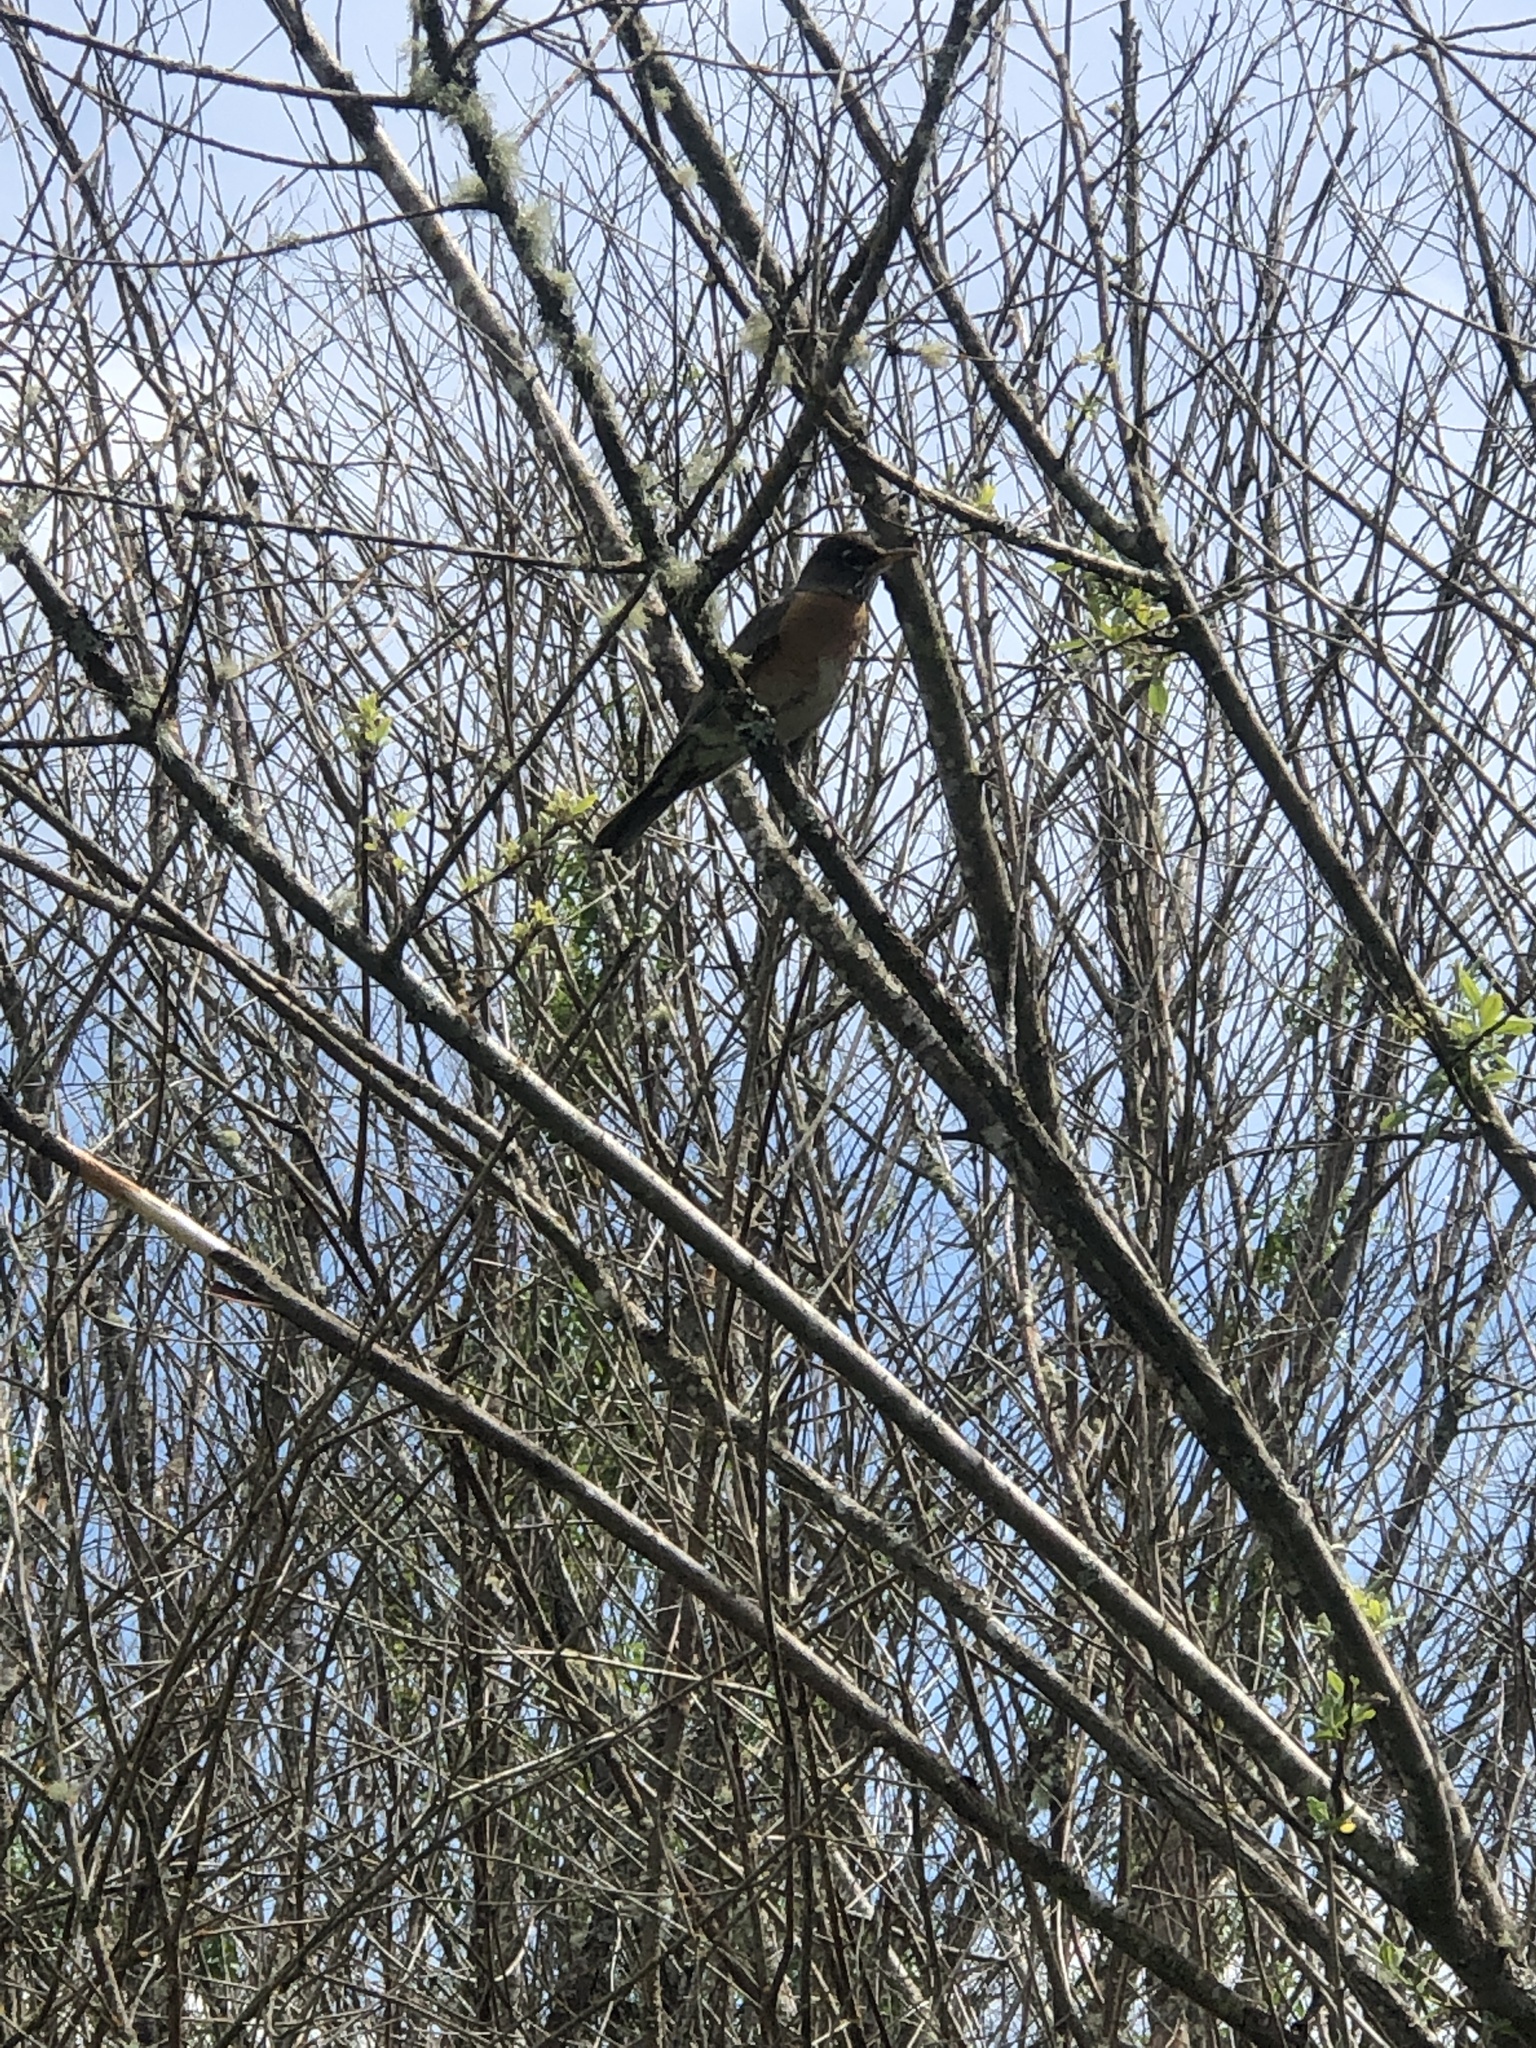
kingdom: Animalia
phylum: Chordata
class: Aves
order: Passeriformes
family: Turdidae
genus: Turdus
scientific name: Turdus migratorius
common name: American robin
